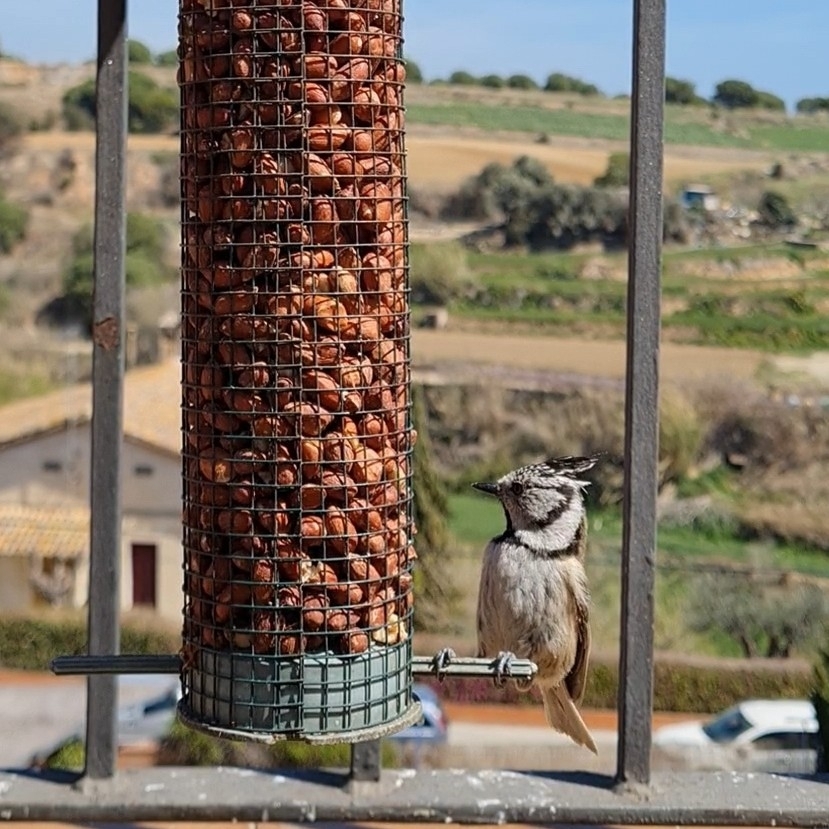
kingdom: Animalia
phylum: Chordata
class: Aves
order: Passeriformes
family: Paridae
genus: Lophophanes
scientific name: Lophophanes cristatus
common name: European crested tit
